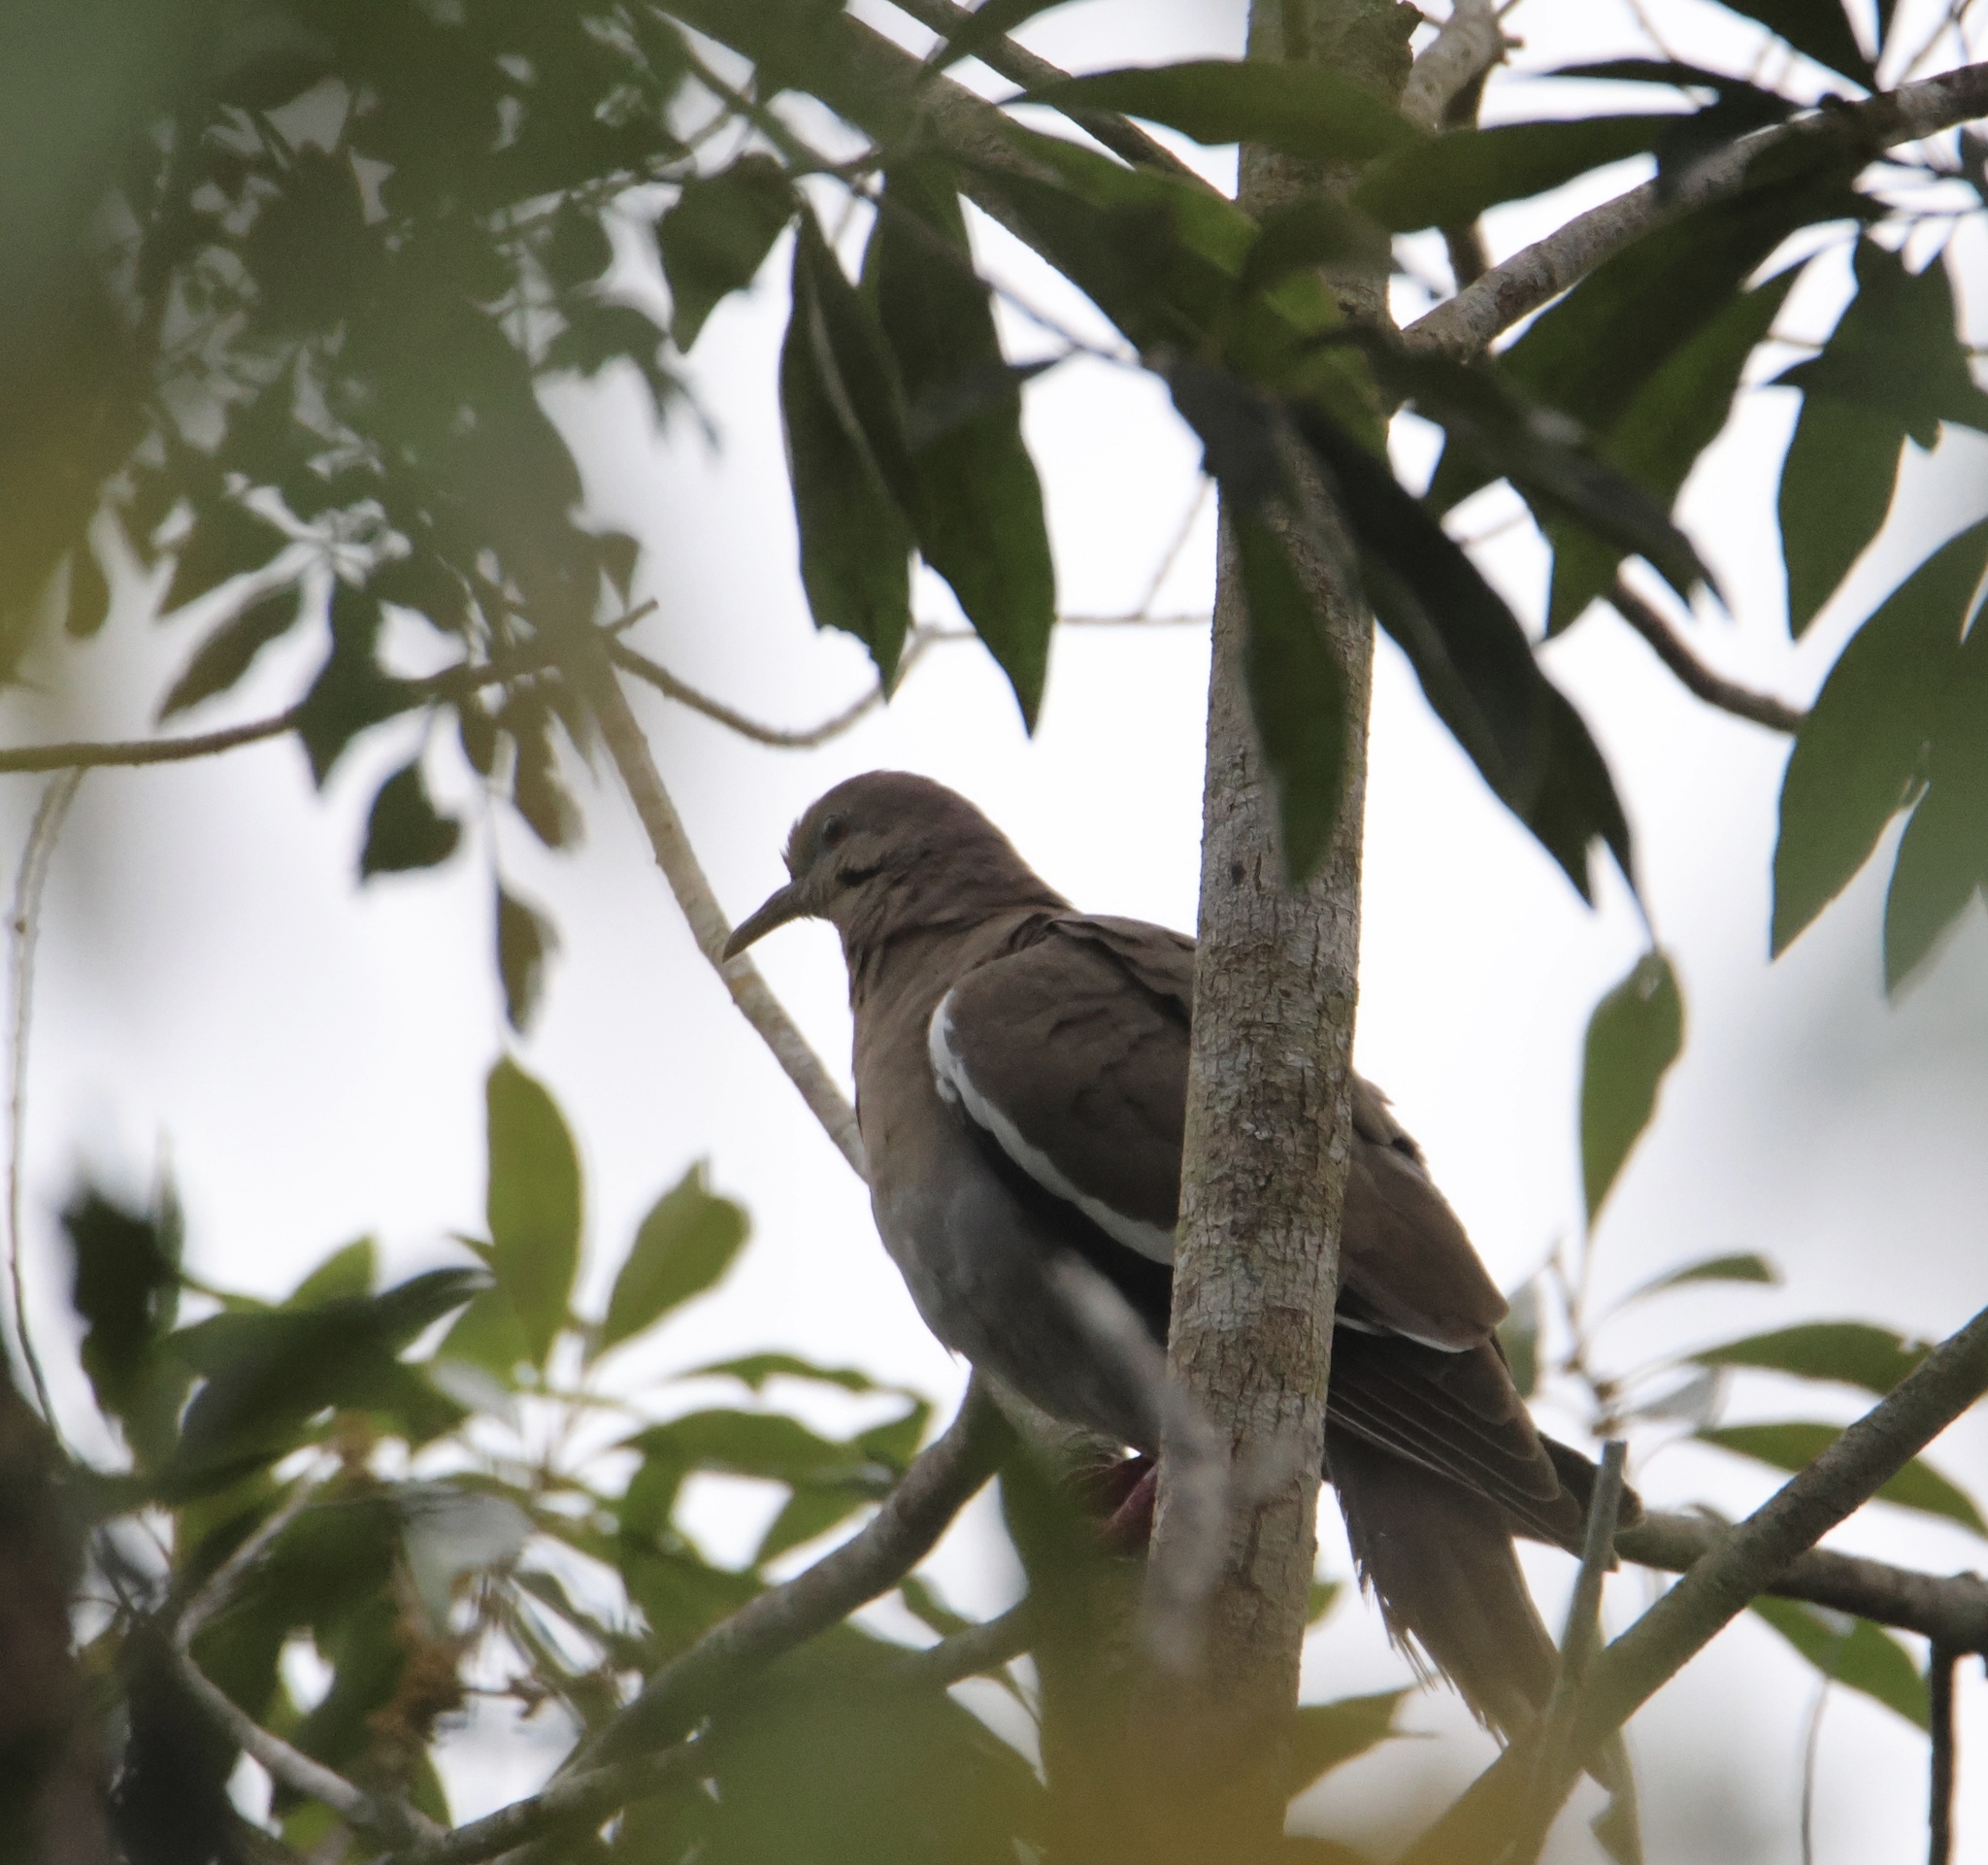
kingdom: Animalia
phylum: Chordata
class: Aves
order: Columbiformes
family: Columbidae
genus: Zenaida
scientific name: Zenaida asiatica
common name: White-winged dove
